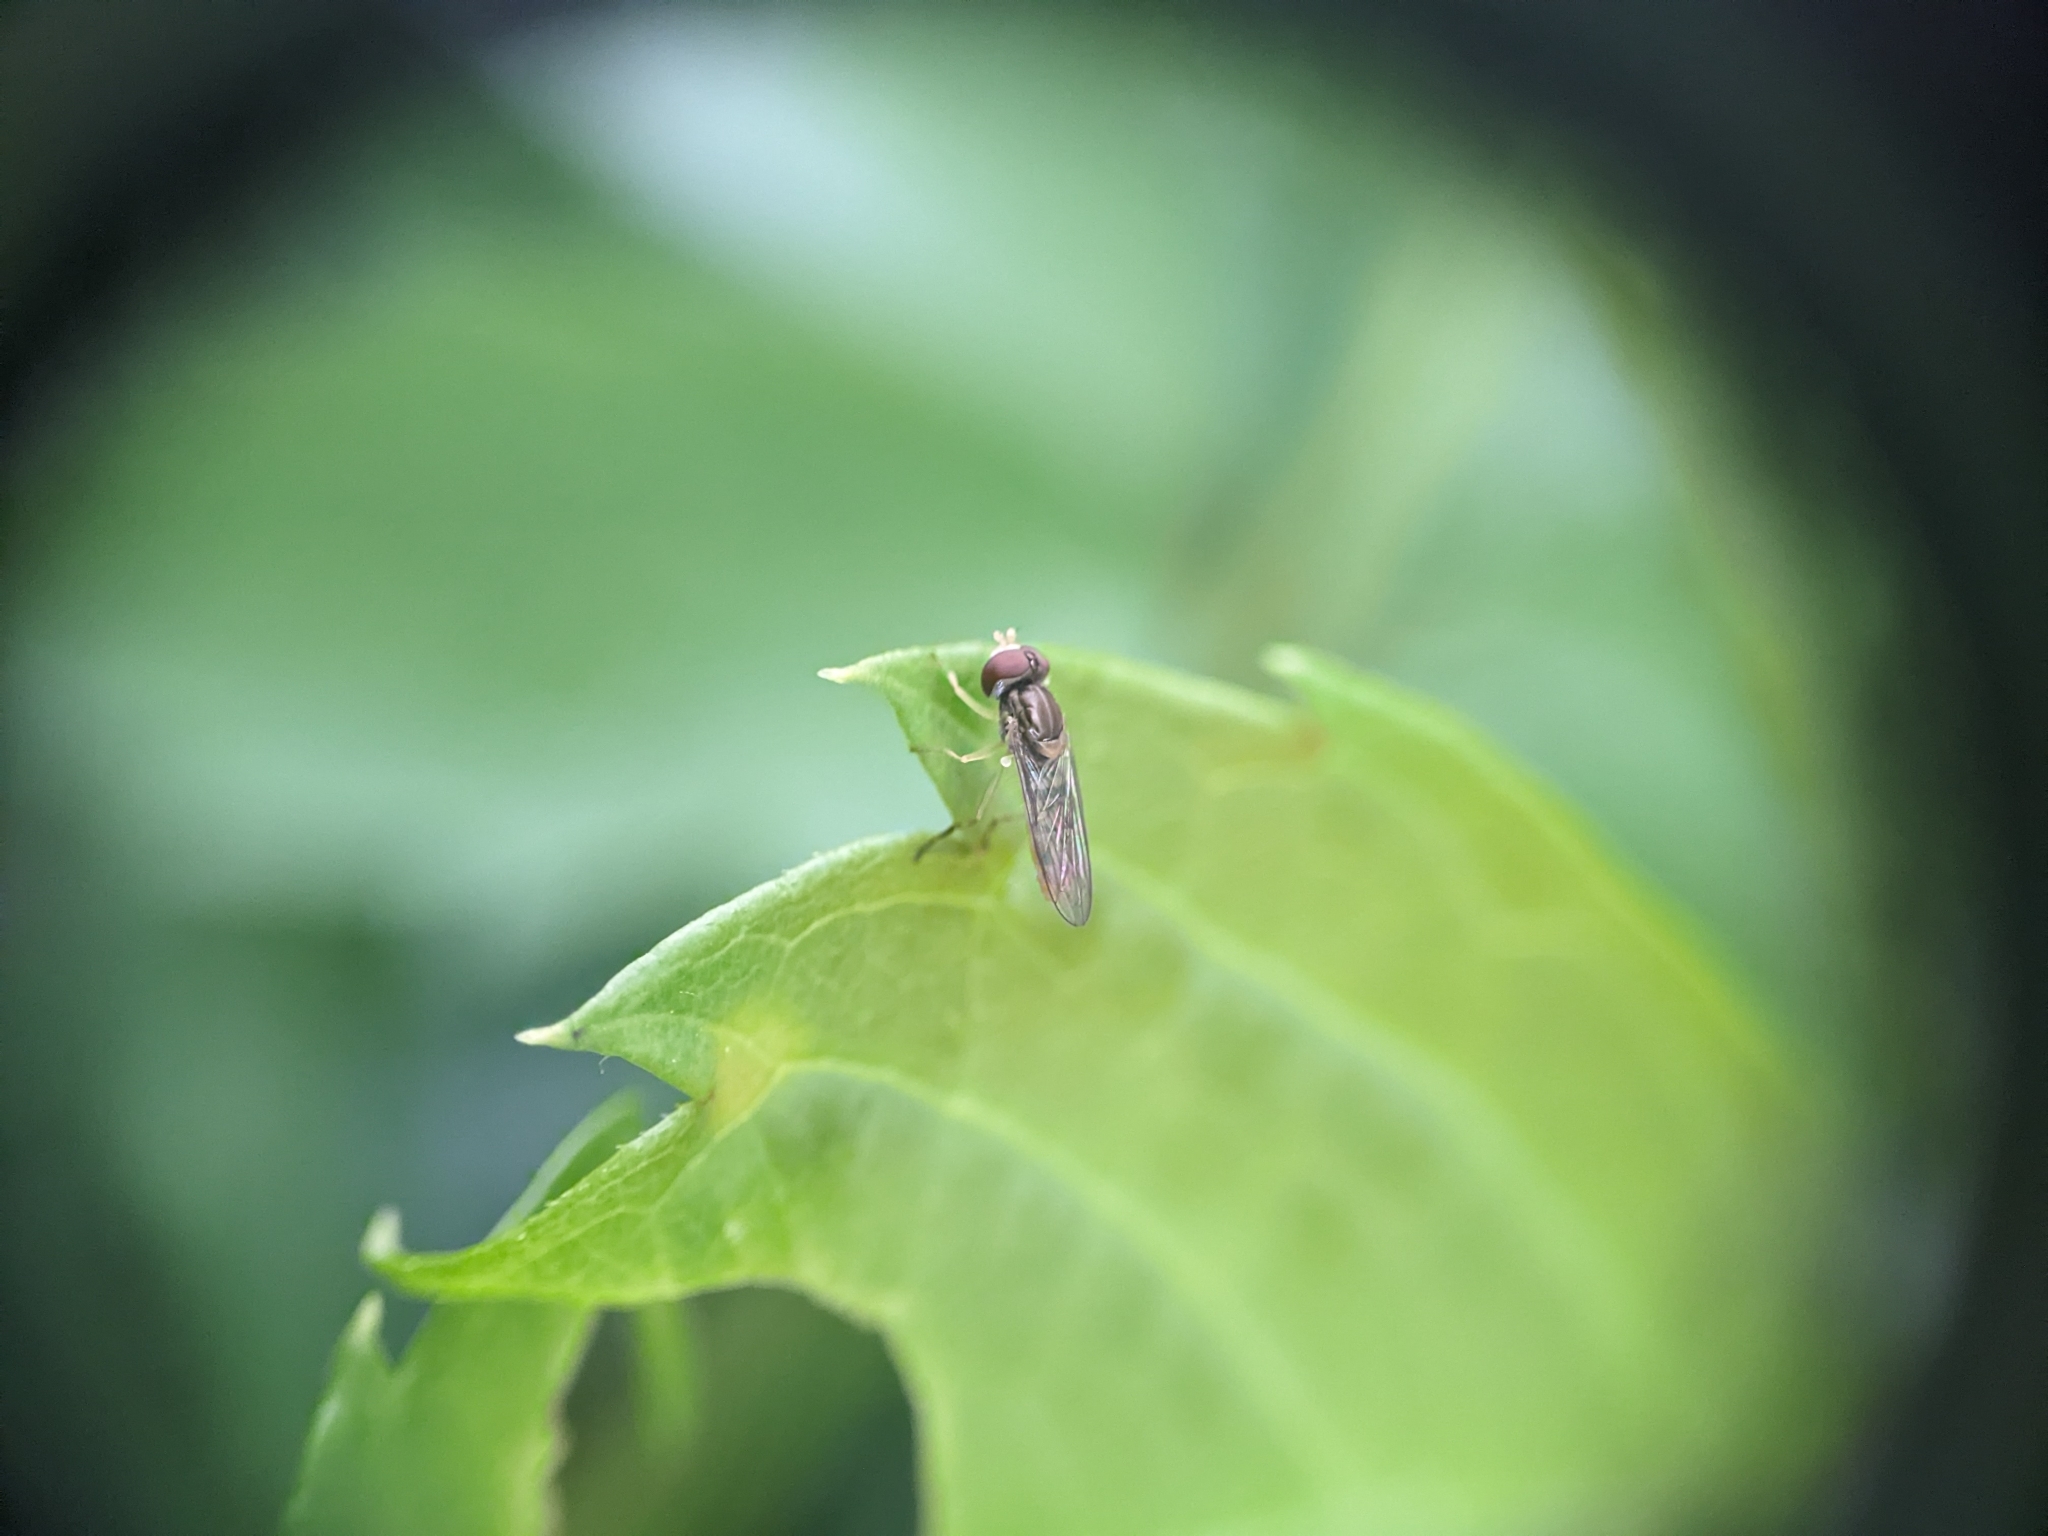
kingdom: Animalia
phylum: Arthropoda
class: Insecta
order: Diptera
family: Syrphidae
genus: Toxomerus
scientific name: Toxomerus marginatus
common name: Syrphid fly
